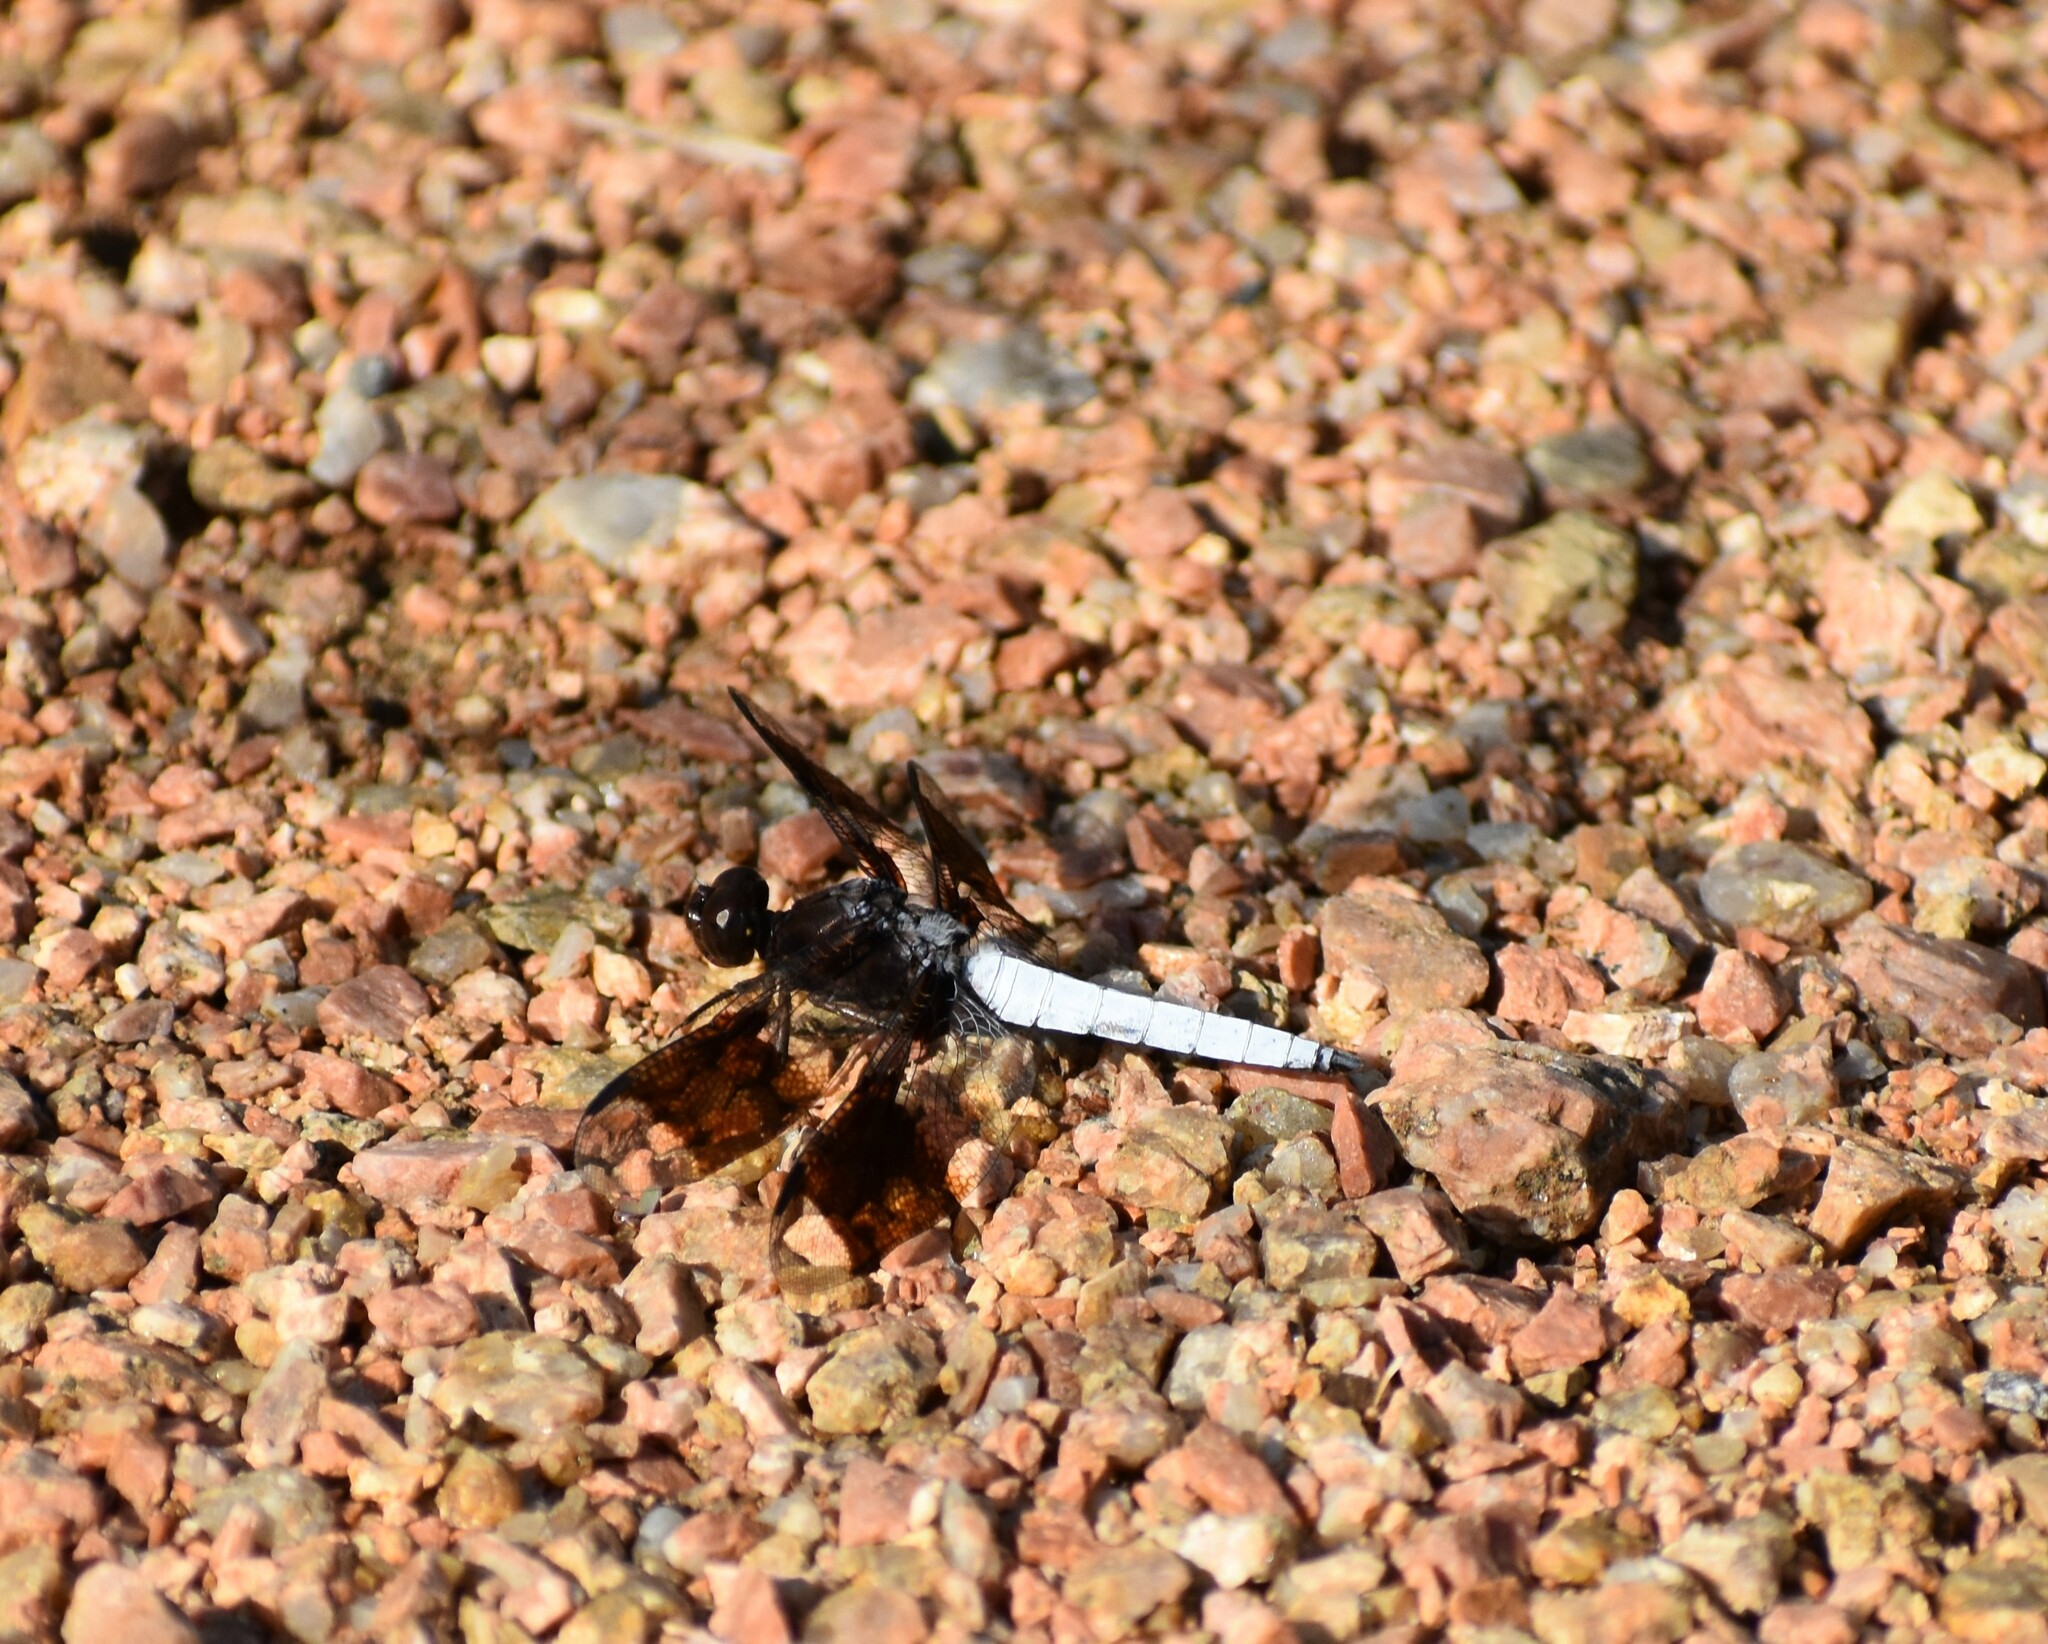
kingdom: Animalia
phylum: Arthropoda
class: Insecta
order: Odonata
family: Libellulidae
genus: Plathemis
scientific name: Plathemis lydia
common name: Common whitetail
